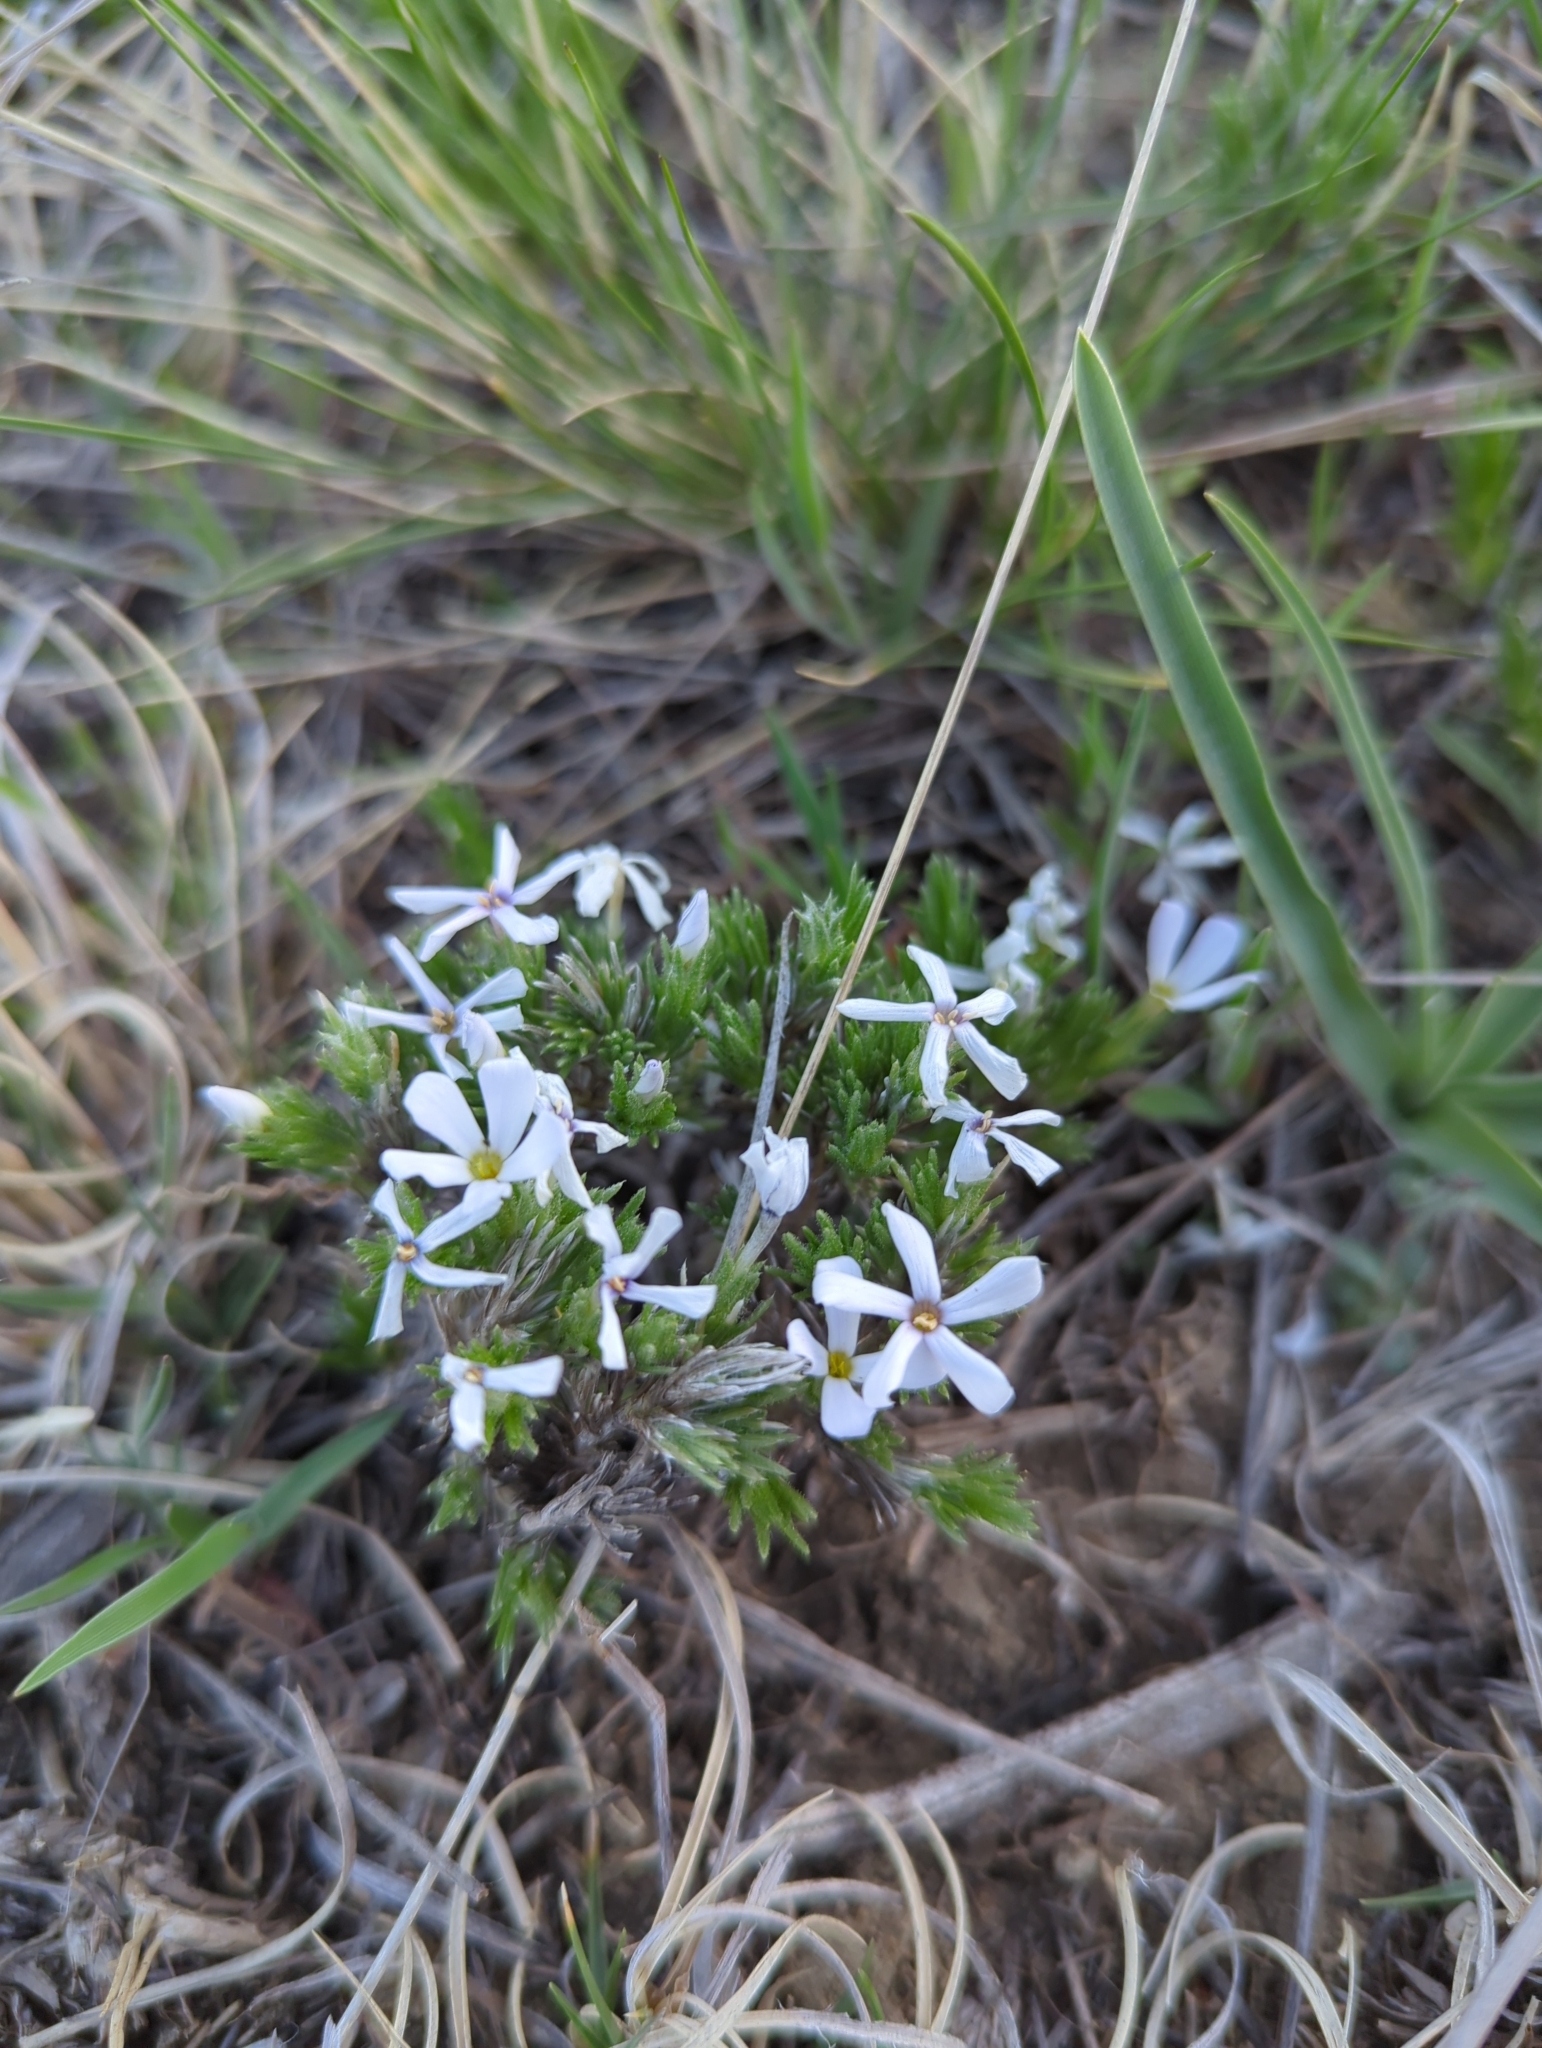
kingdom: Plantae
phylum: Tracheophyta
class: Magnoliopsida
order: Ericales
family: Polemoniaceae
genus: Phlox
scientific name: Phlox hoodii
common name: Moss phlox
